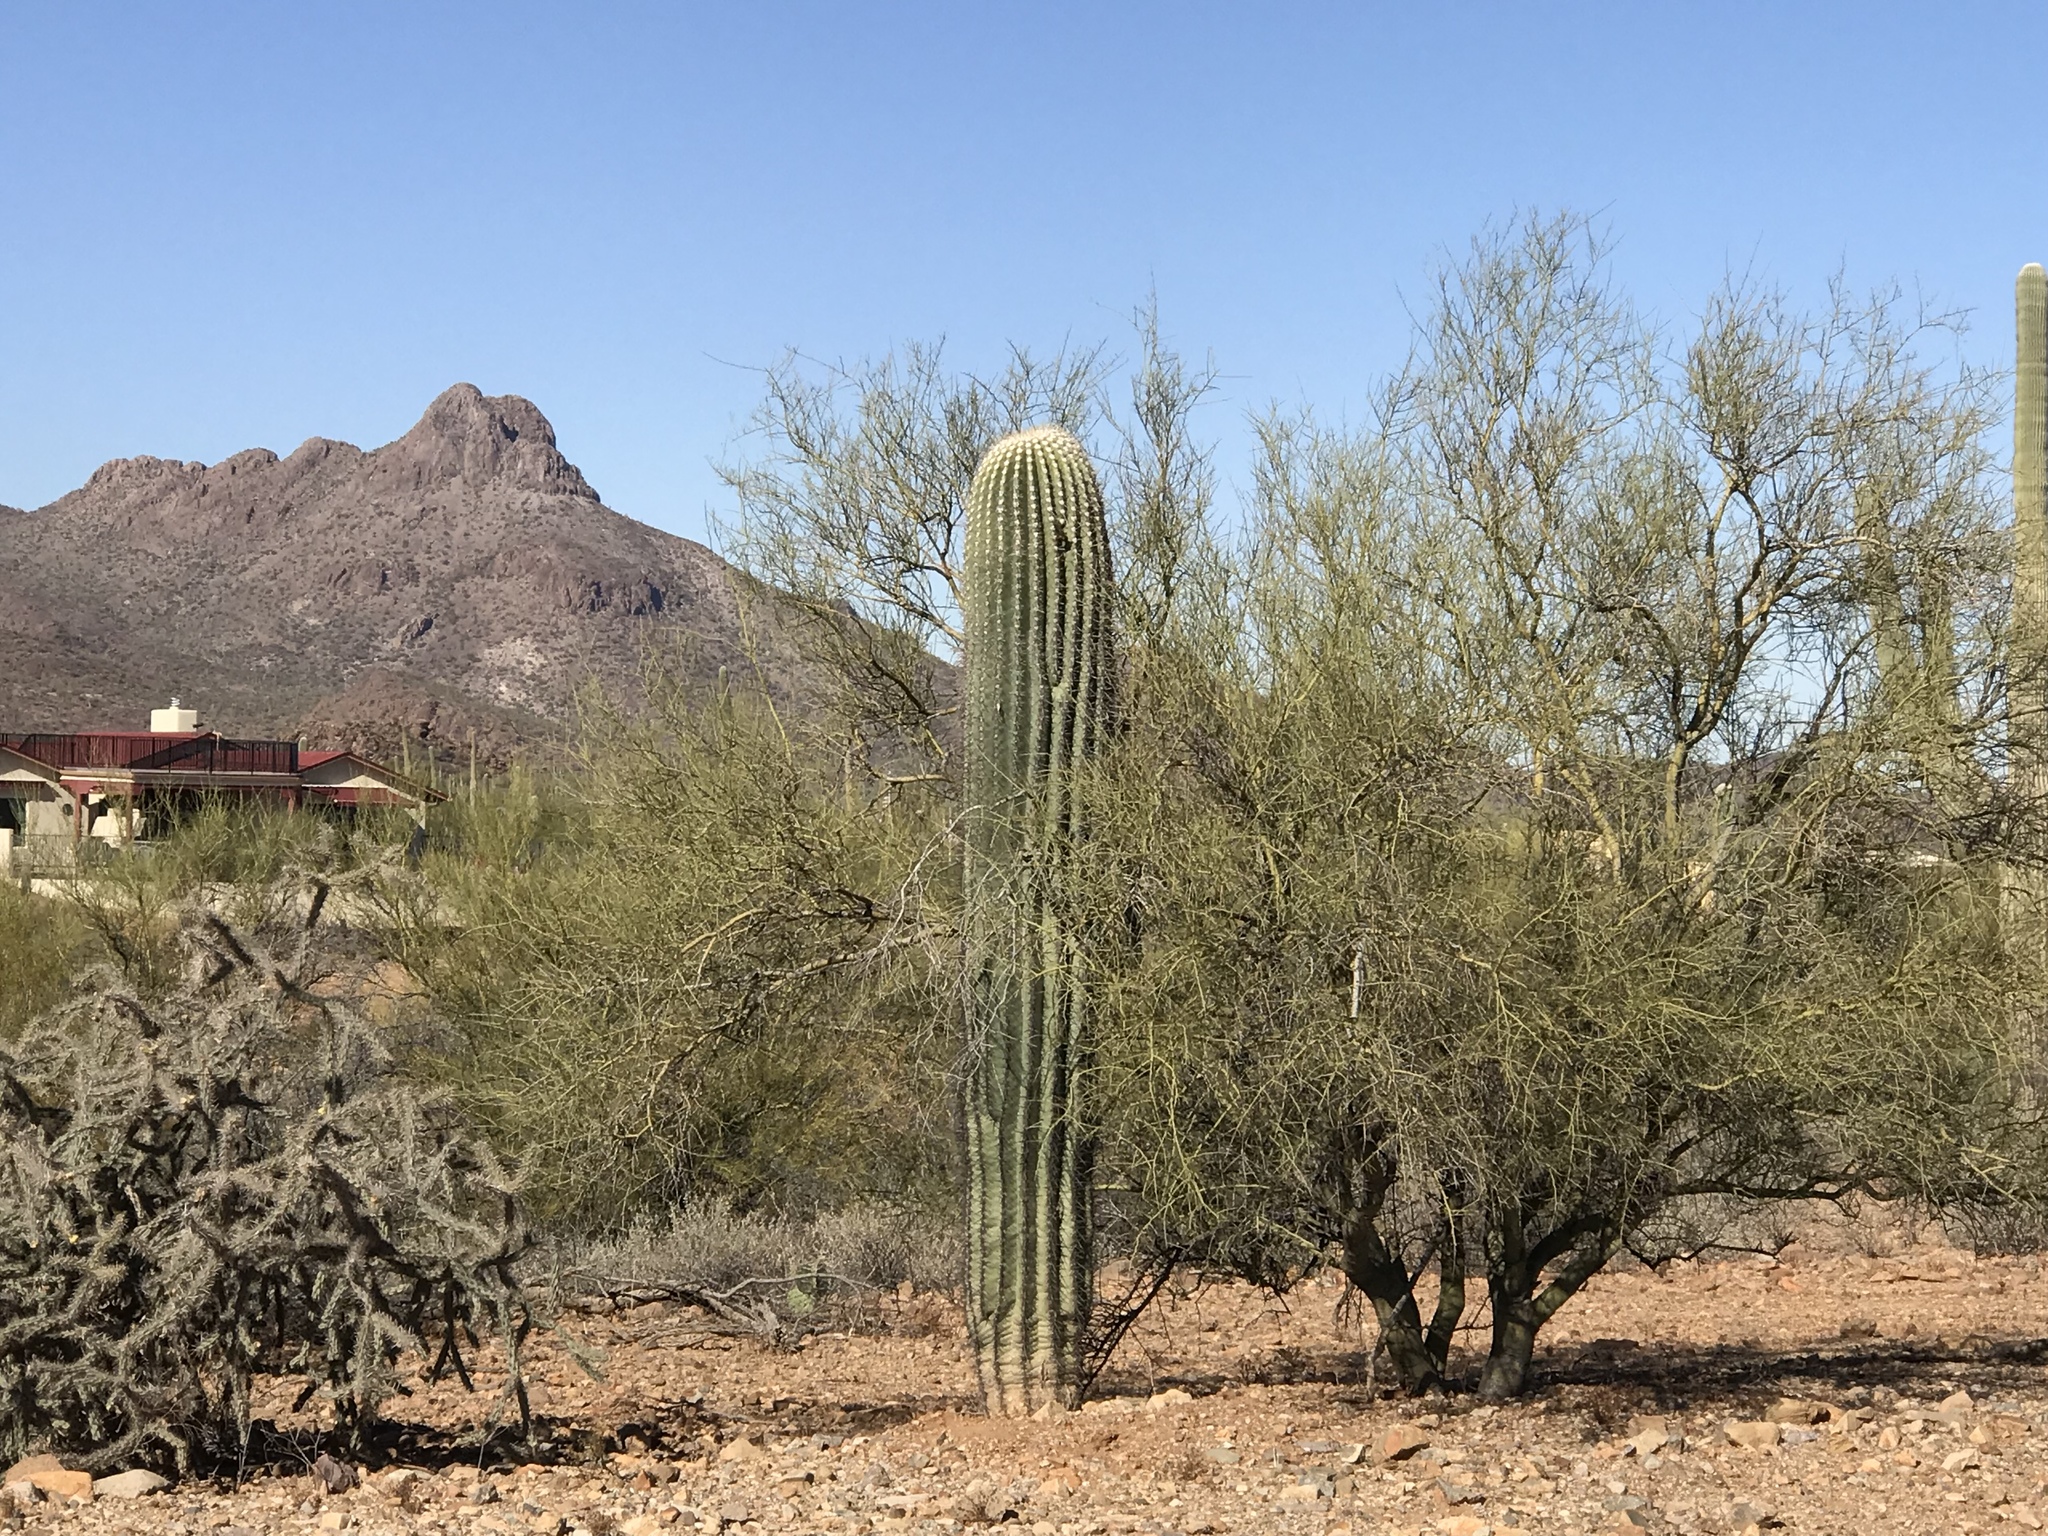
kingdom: Plantae
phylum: Tracheophyta
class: Magnoliopsida
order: Fabales
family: Fabaceae
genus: Parkinsonia
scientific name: Parkinsonia microphylla
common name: Yellow paloverde
